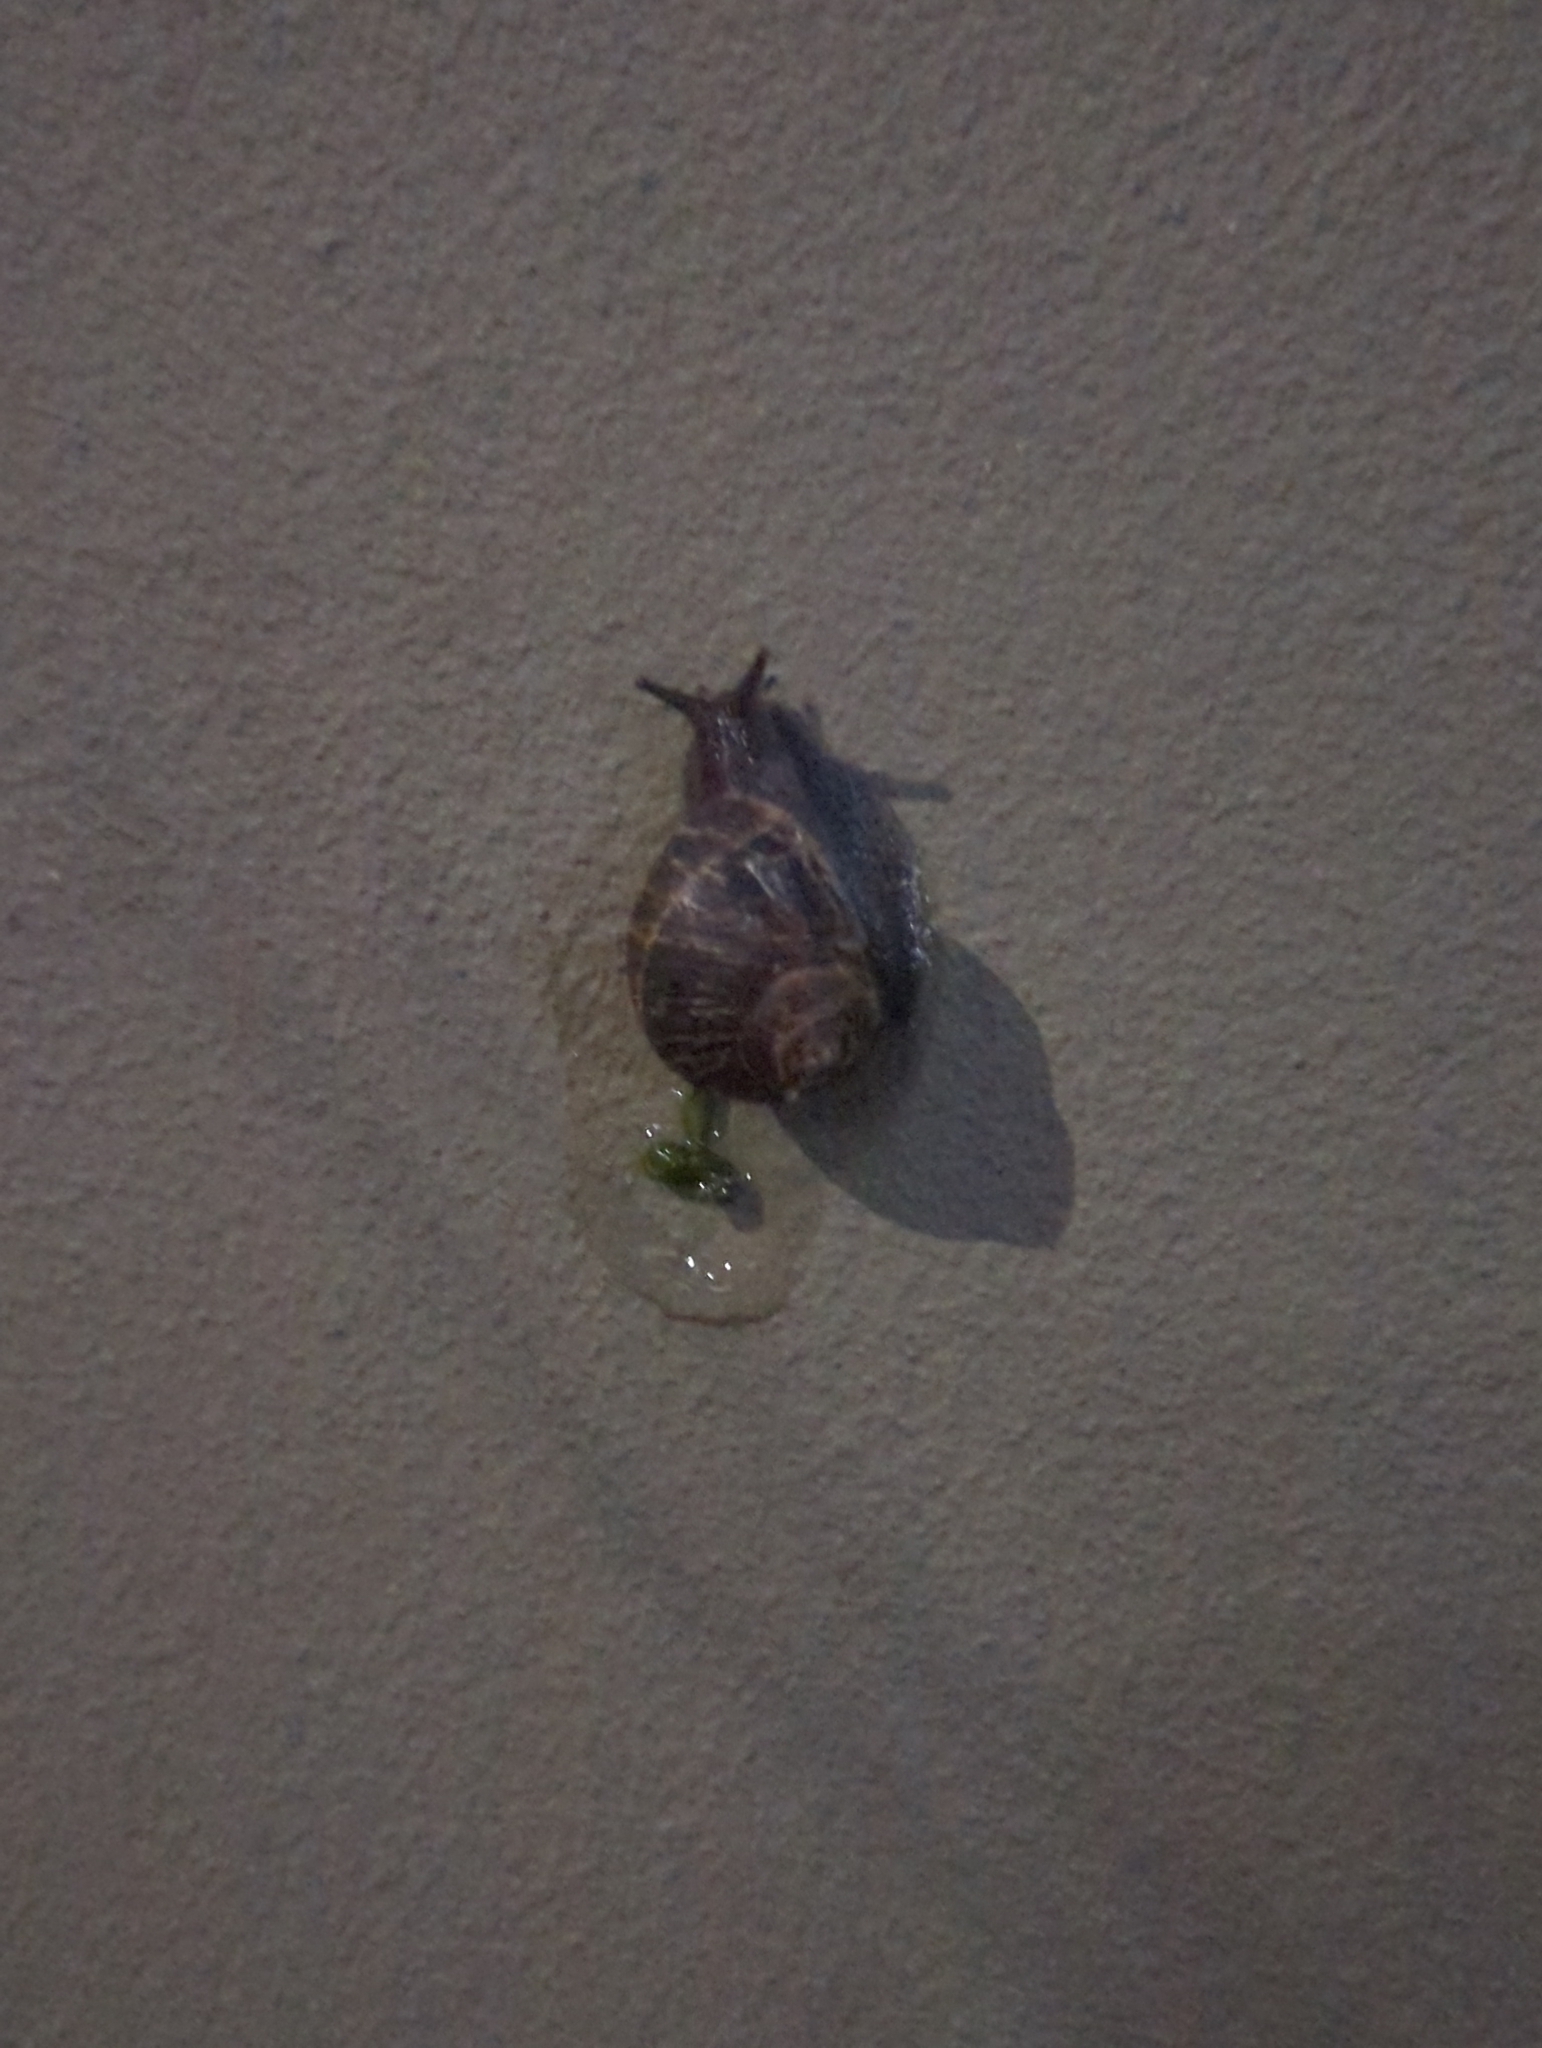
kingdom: Animalia
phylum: Mollusca
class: Gastropoda
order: Stylommatophora
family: Helicidae
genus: Cornu
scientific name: Cornu aspersum
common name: Brown garden snail
